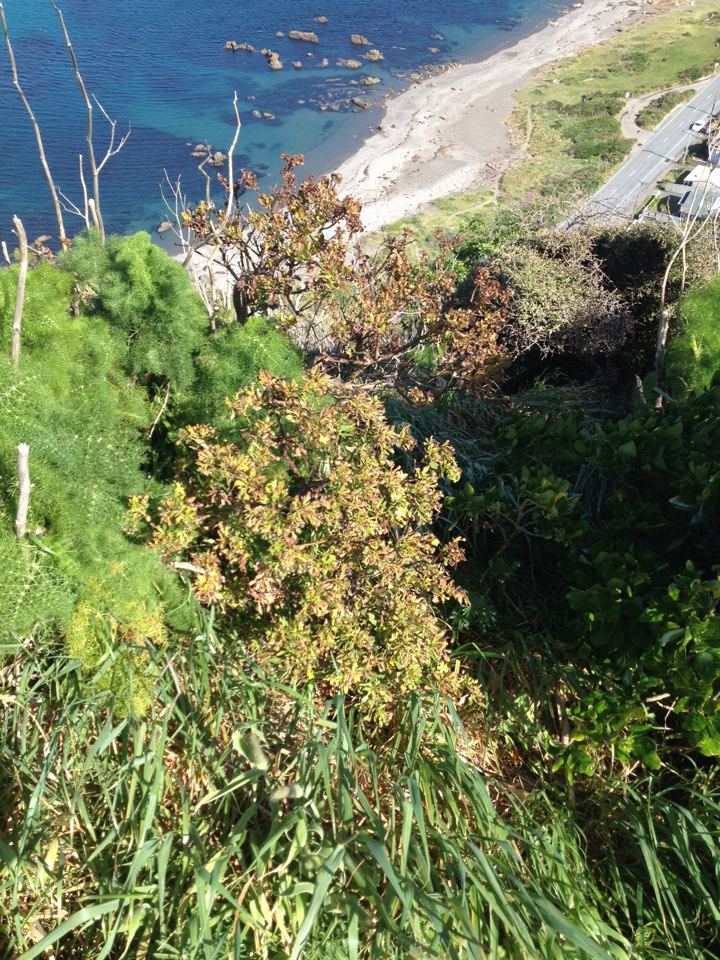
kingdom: Plantae
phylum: Tracheophyta
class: Magnoliopsida
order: Asterales
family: Asteraceae
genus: Osteospermum
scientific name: Osteospermum moniliferum
